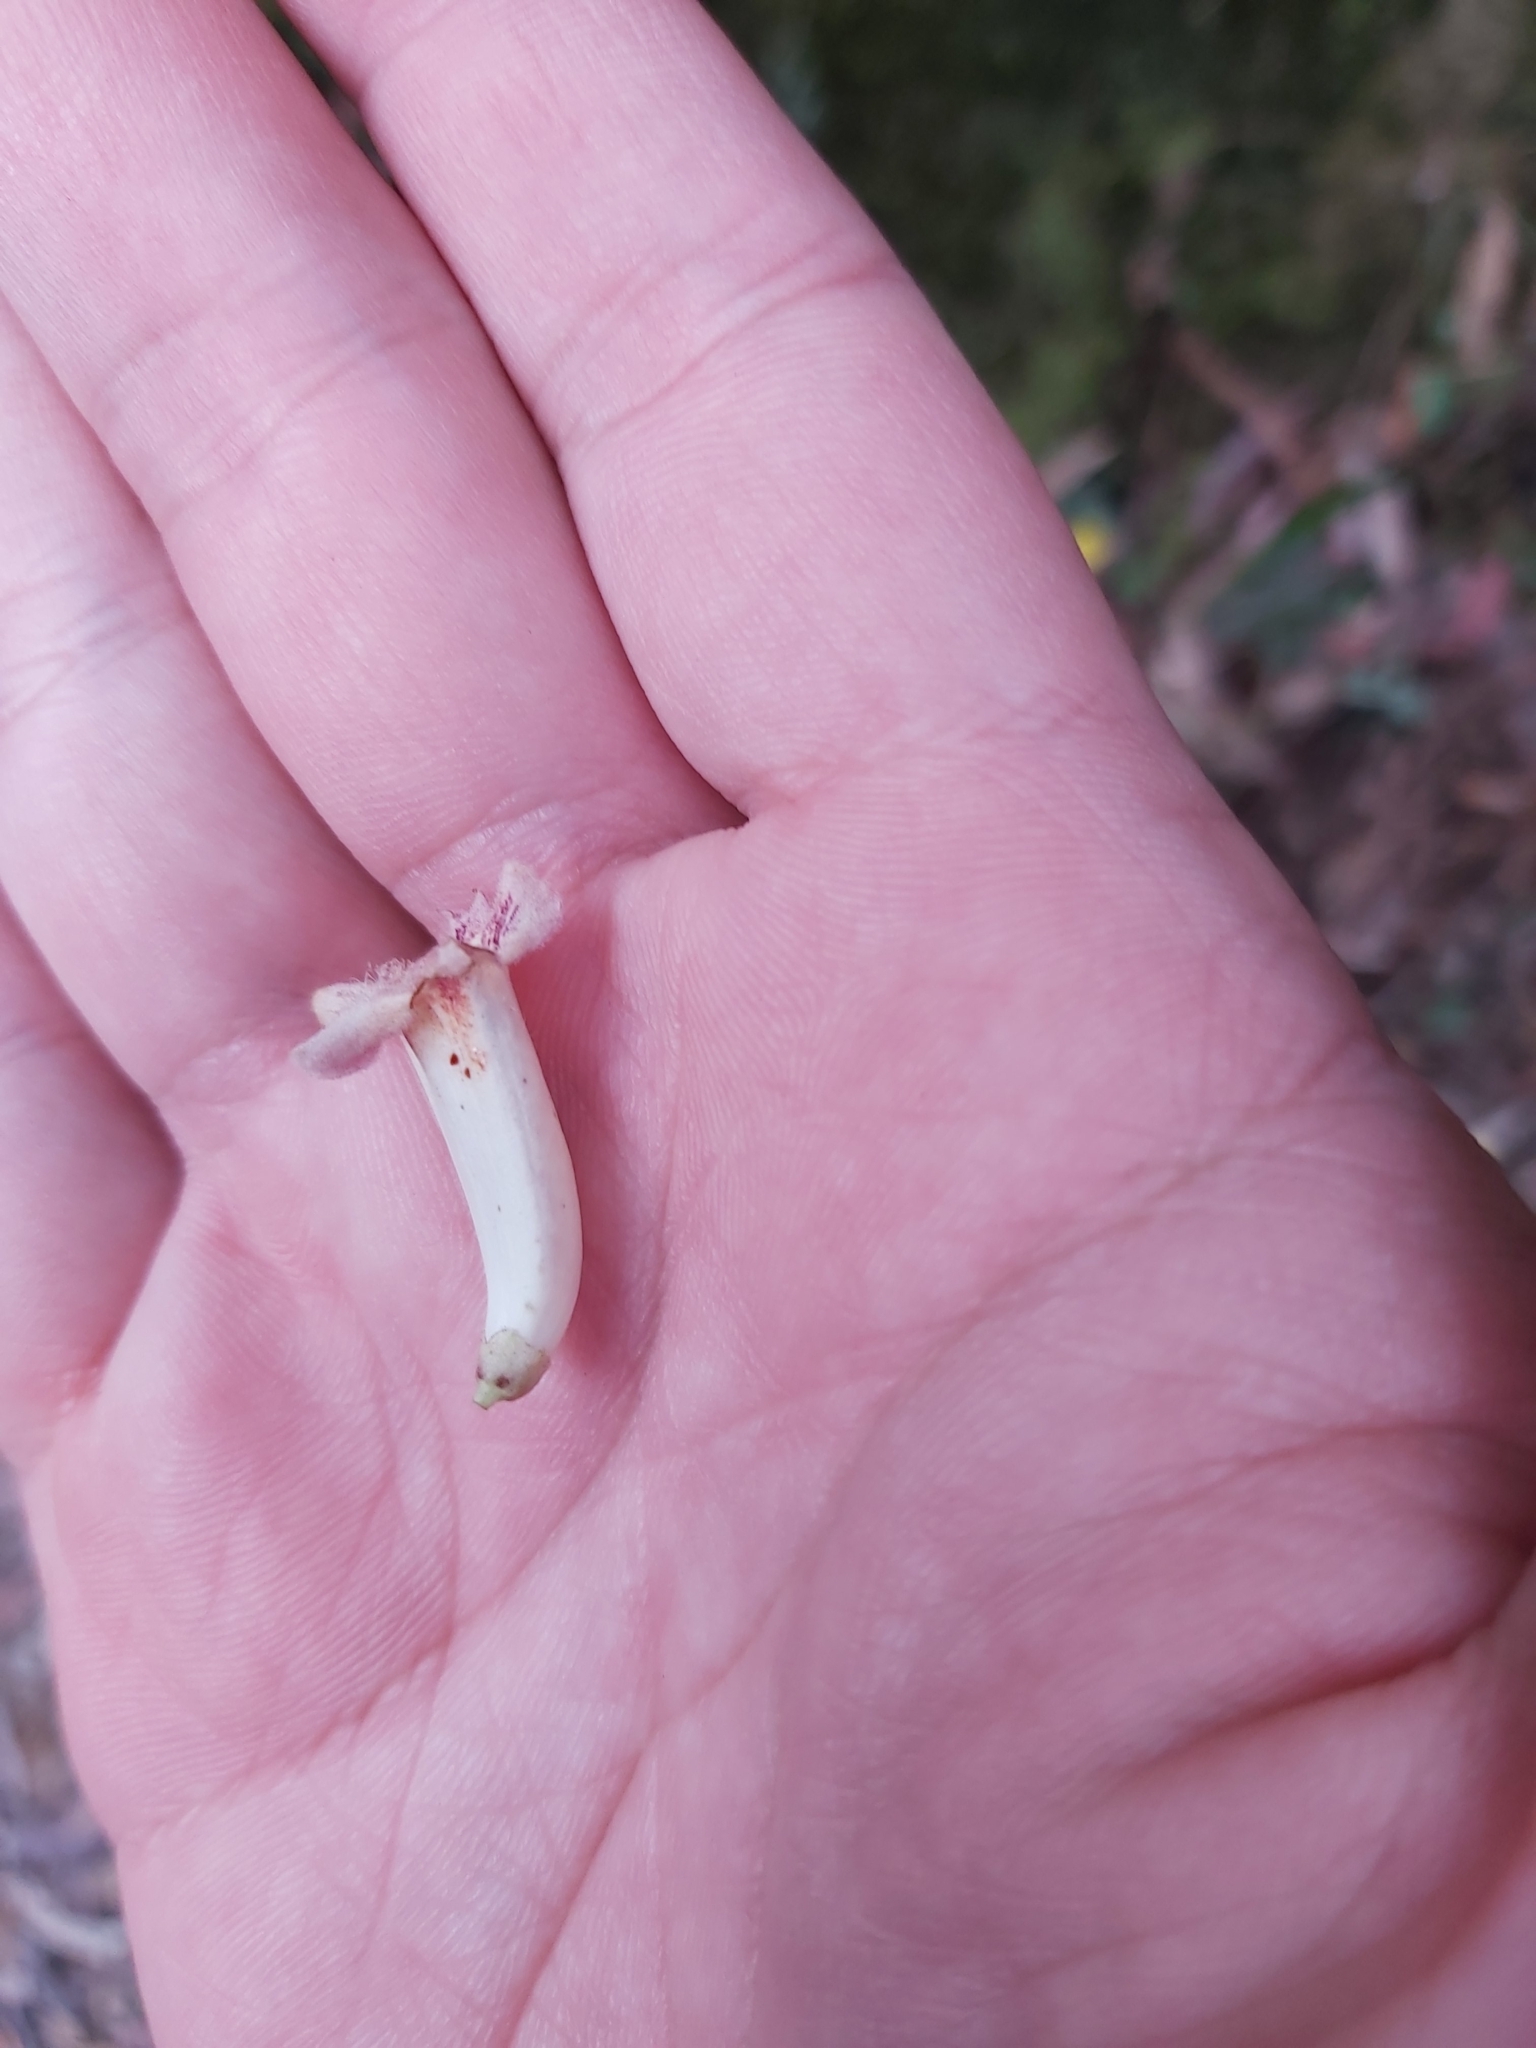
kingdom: Plantae
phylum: Tracheophyta
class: Magnoliopsida
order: Lamiales
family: Bignoniaceae
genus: Pandorea
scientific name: Pandorea pandorana
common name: Wonga-wonga-vine
